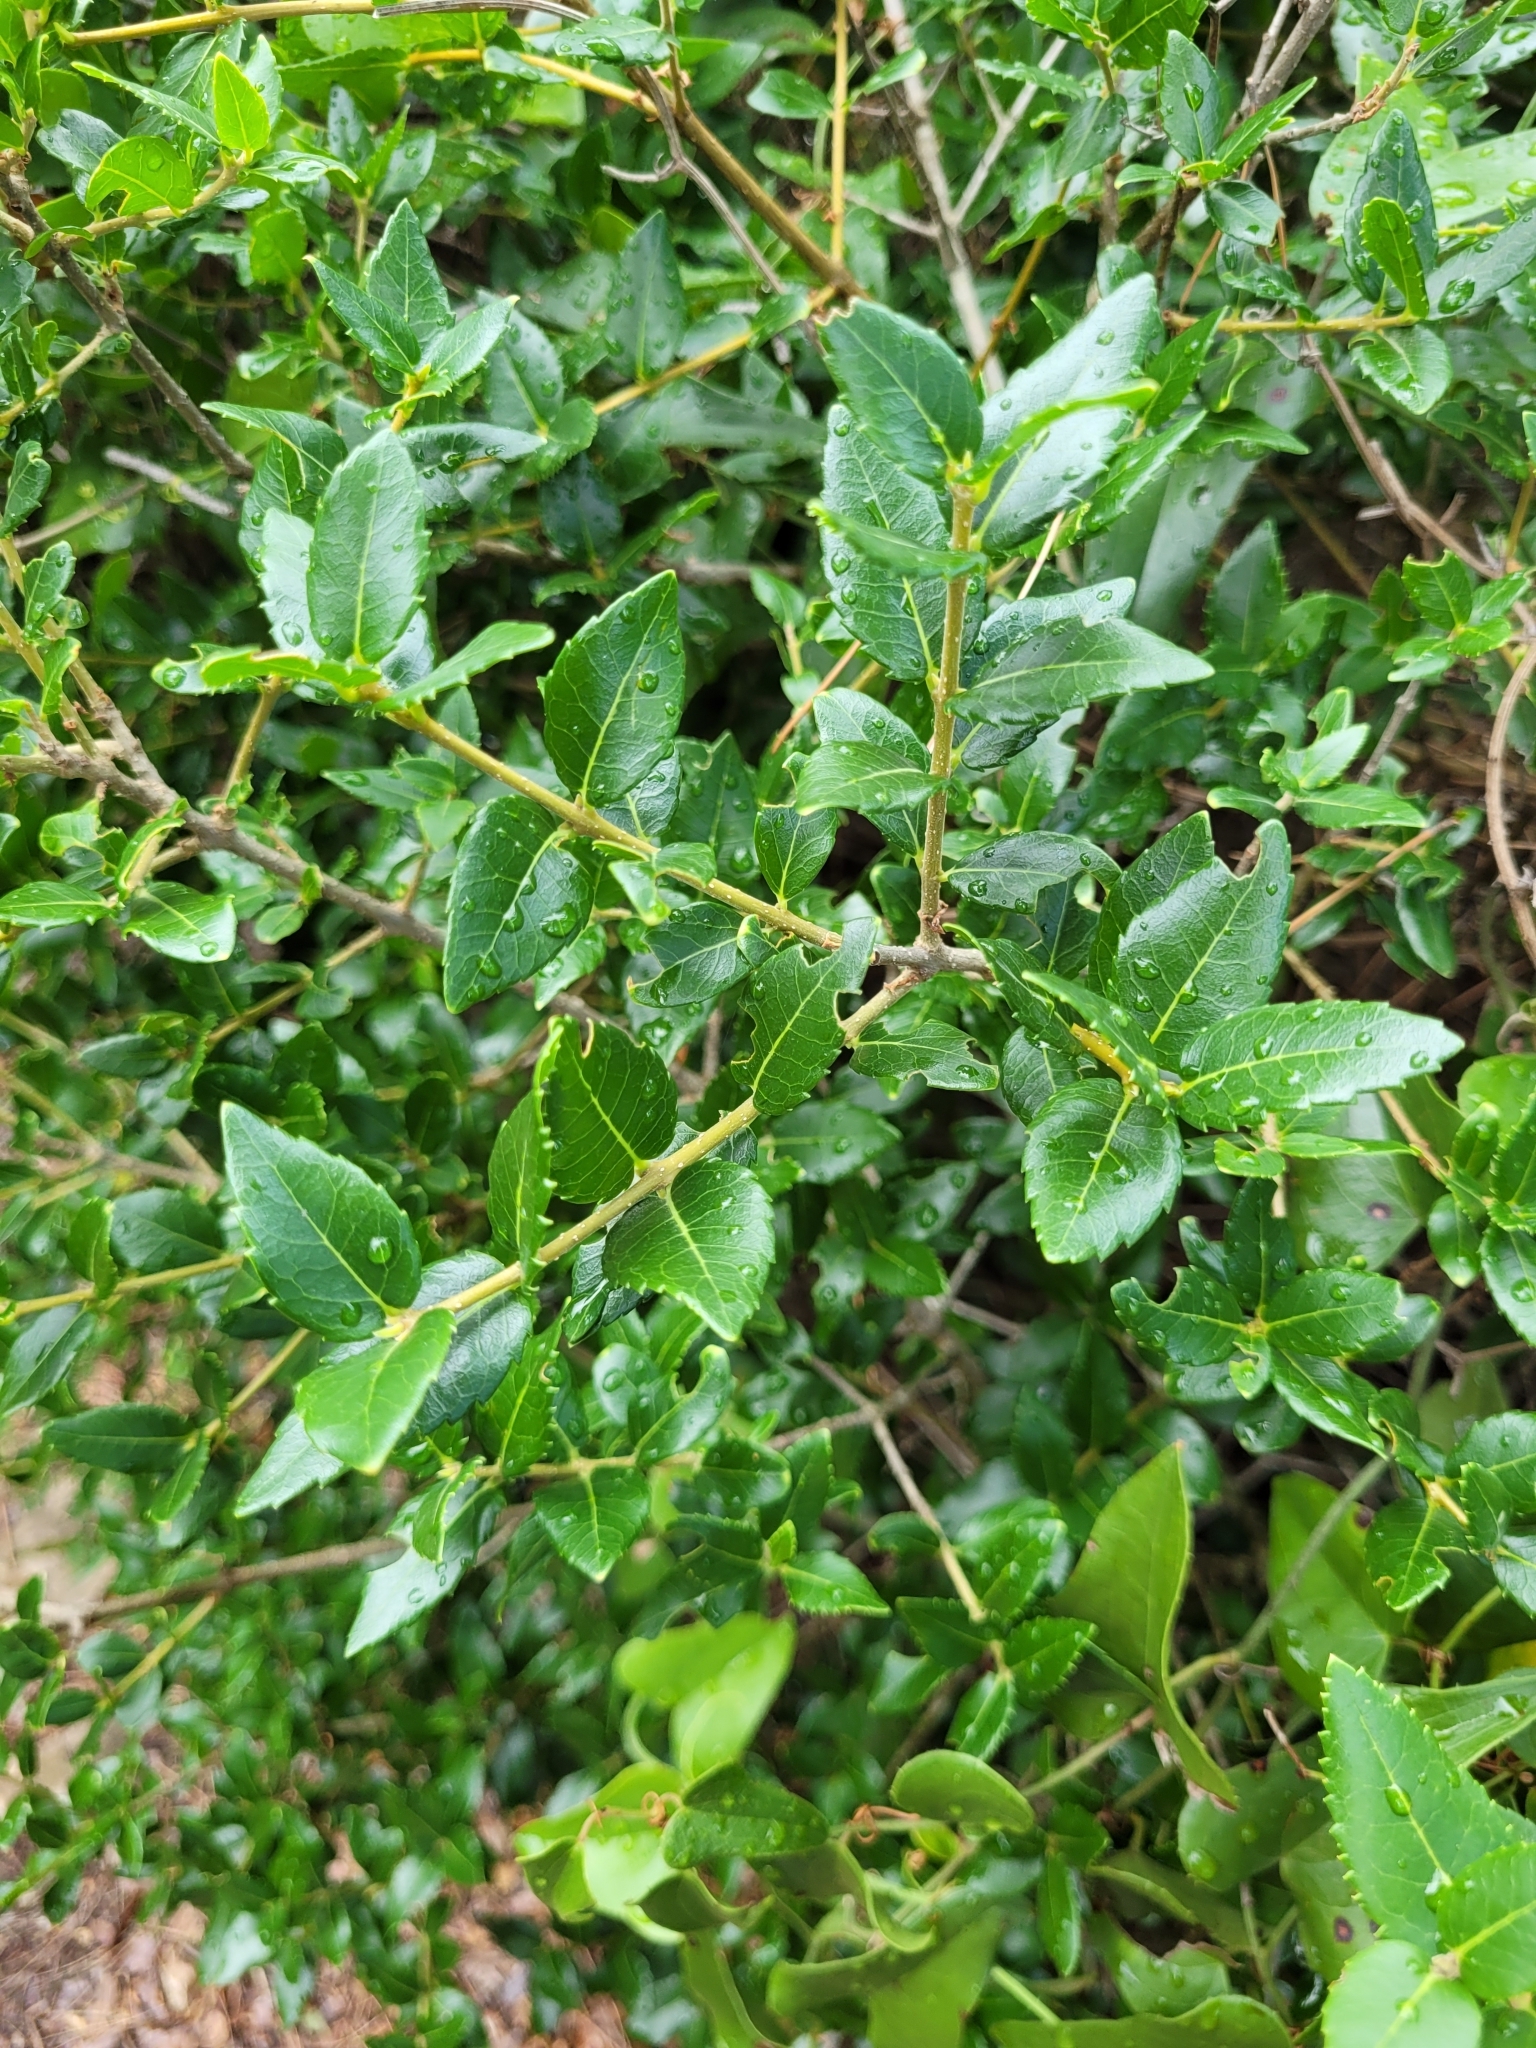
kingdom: Plantae
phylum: Tracheophyta
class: Magnoliopsida
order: Lamiales
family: Oleaceae
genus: Phillyrea
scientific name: Phillyrea latifolia
